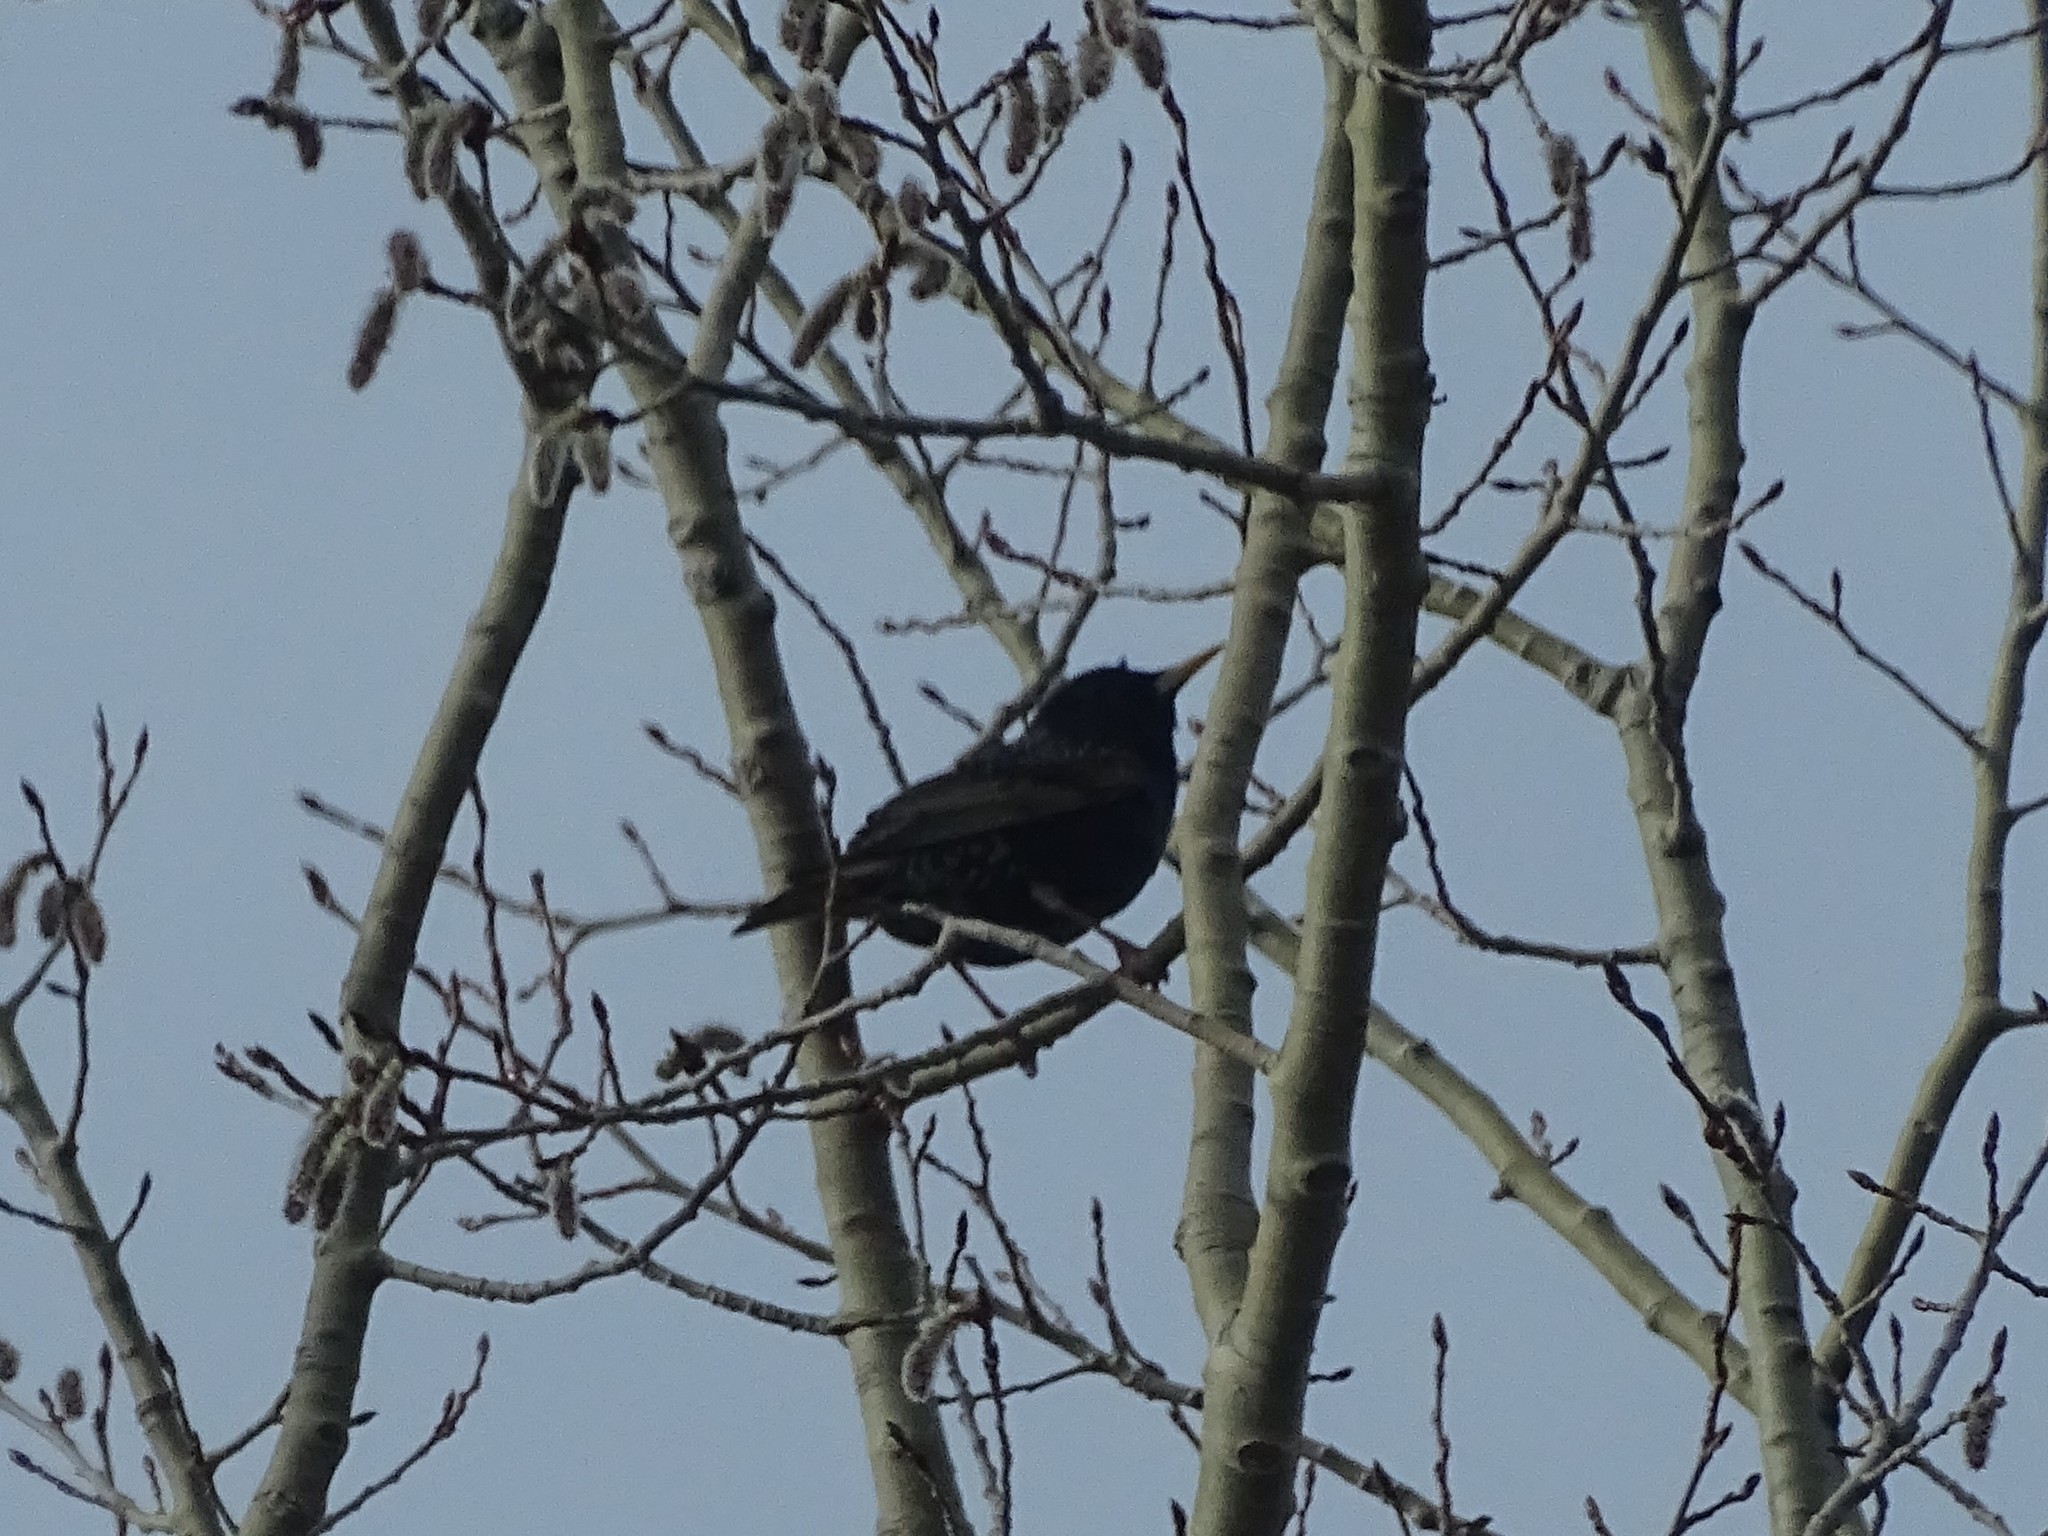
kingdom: Animalia
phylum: Chordata
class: Aves
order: Passeriformes
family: Sturnidae
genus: Sturnus
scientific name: Sturnus vulgaris
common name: Common starling
